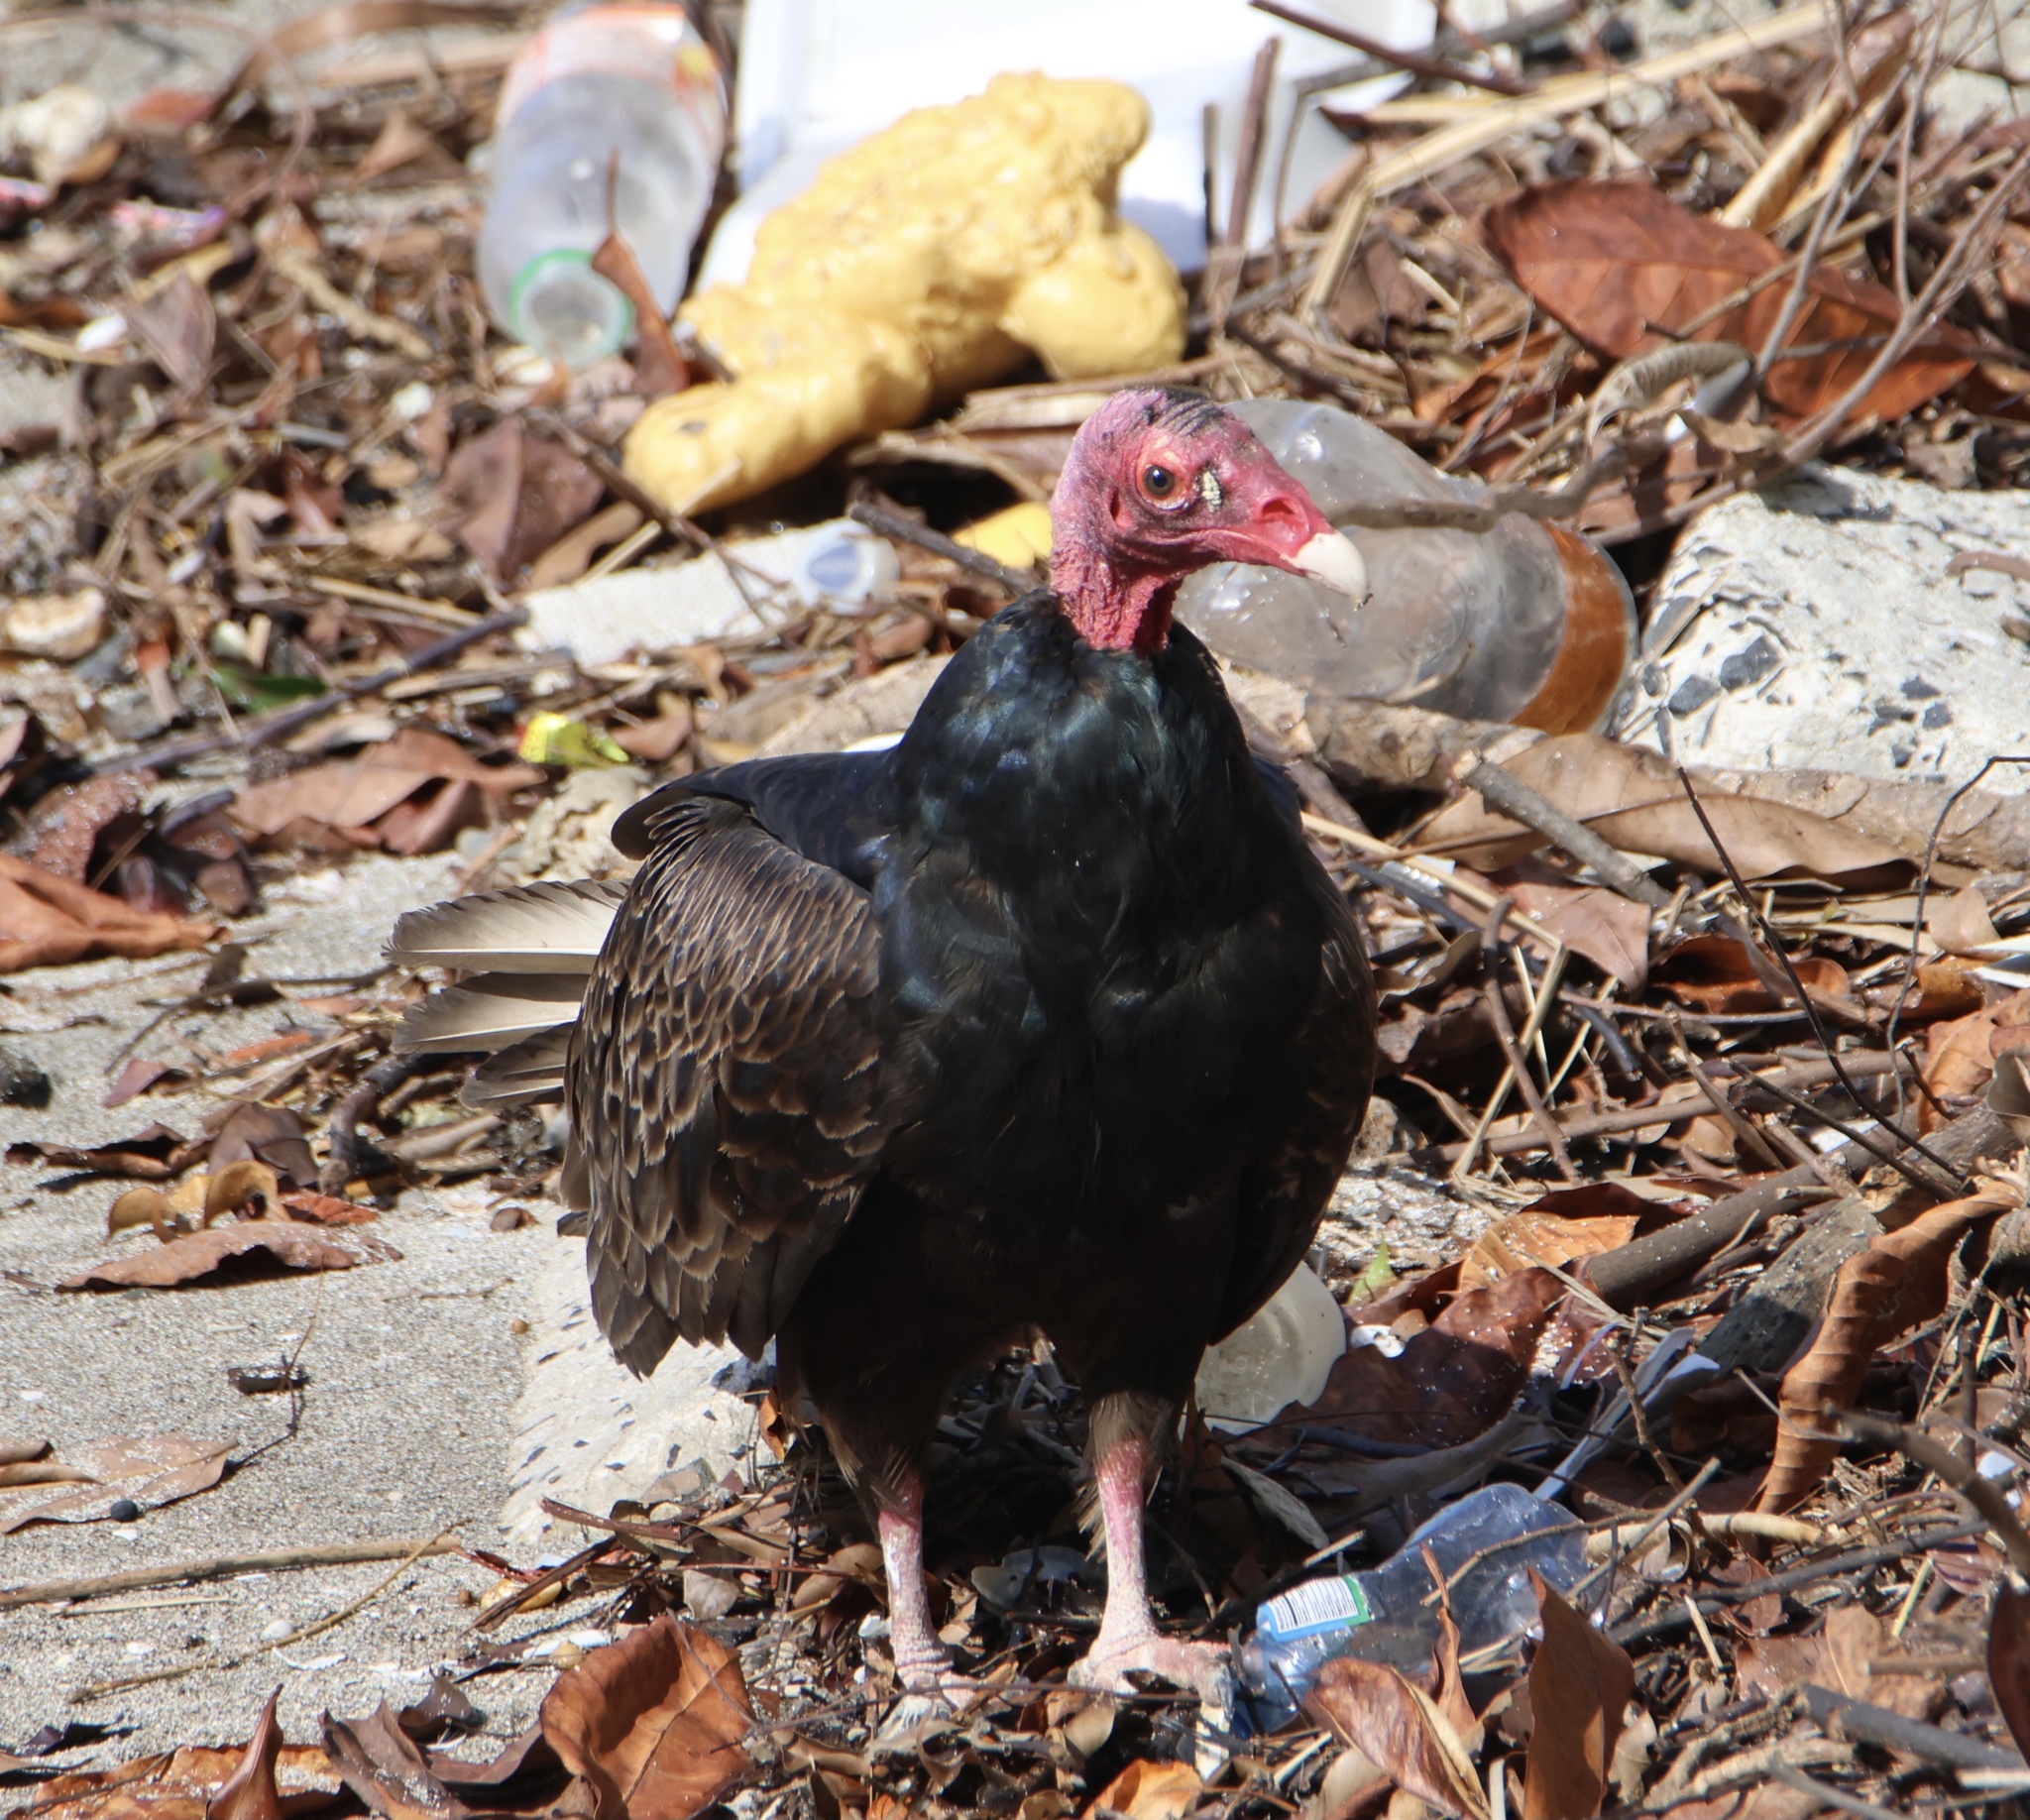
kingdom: Animalia
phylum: Chordata
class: Aves
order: Accipitriformes
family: Cathartidae
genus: Cathartes
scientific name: Cathartes aura
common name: Turkey vulture
